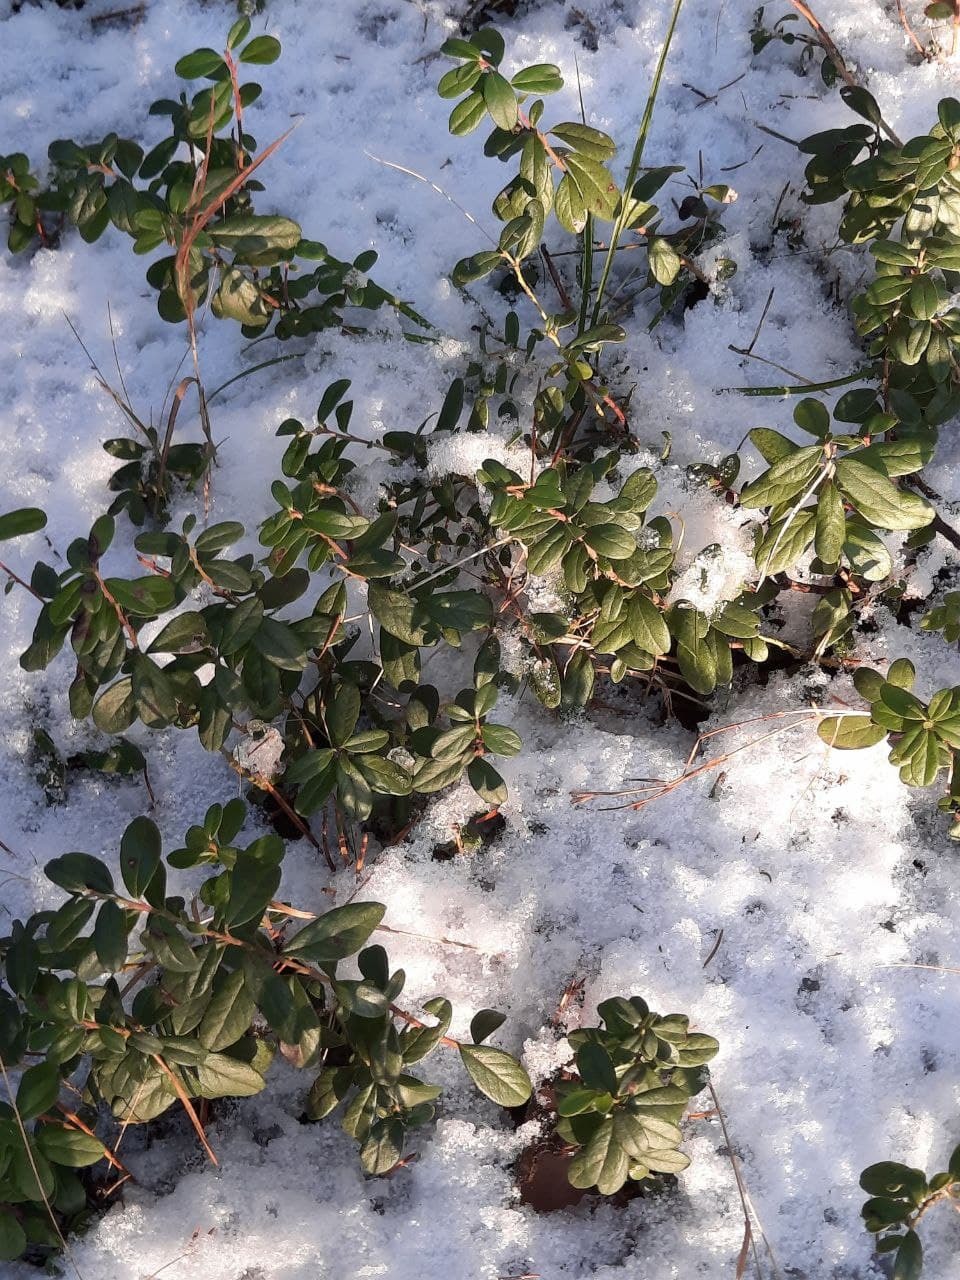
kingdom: Plantae
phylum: Tracheophyta
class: Magnoliopsida
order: Ericales
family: Ericaceae
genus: Vaccinium
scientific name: Vaccinium vitis-idaea
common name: Cowberry
